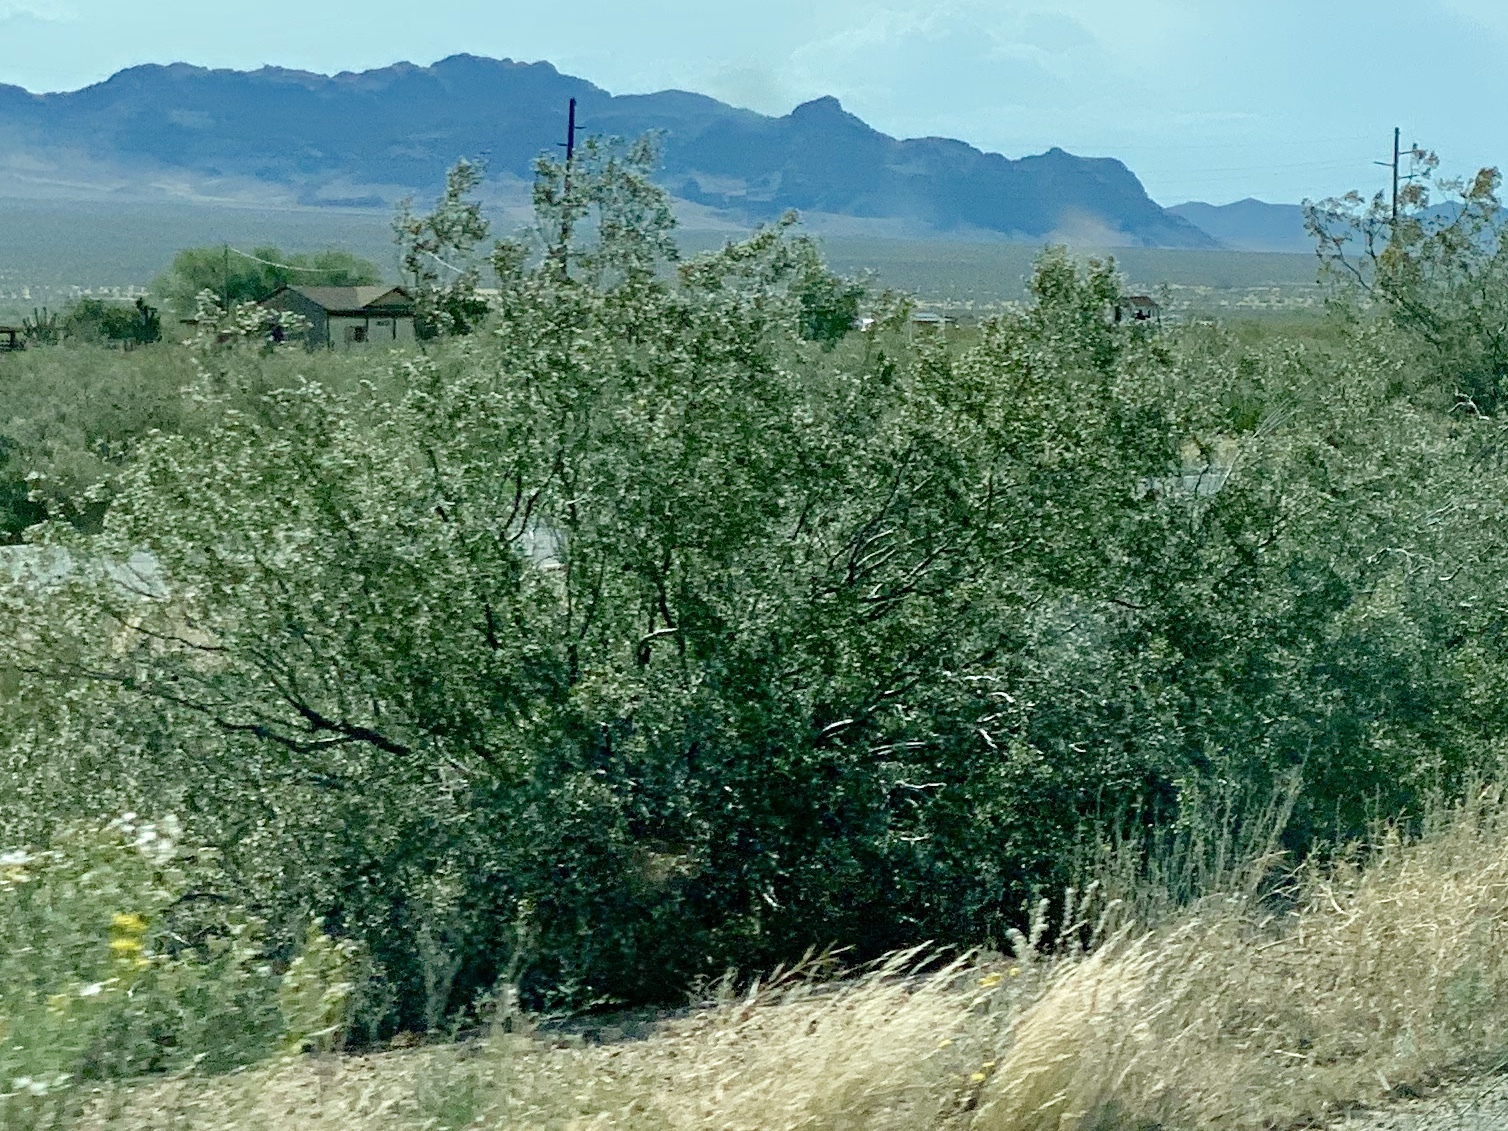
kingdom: Plantae
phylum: Tracheophyta
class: Magnoliopsida
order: Zygophyllales
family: Zygophyllaceae
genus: Larrea
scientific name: Larrea tridentata
